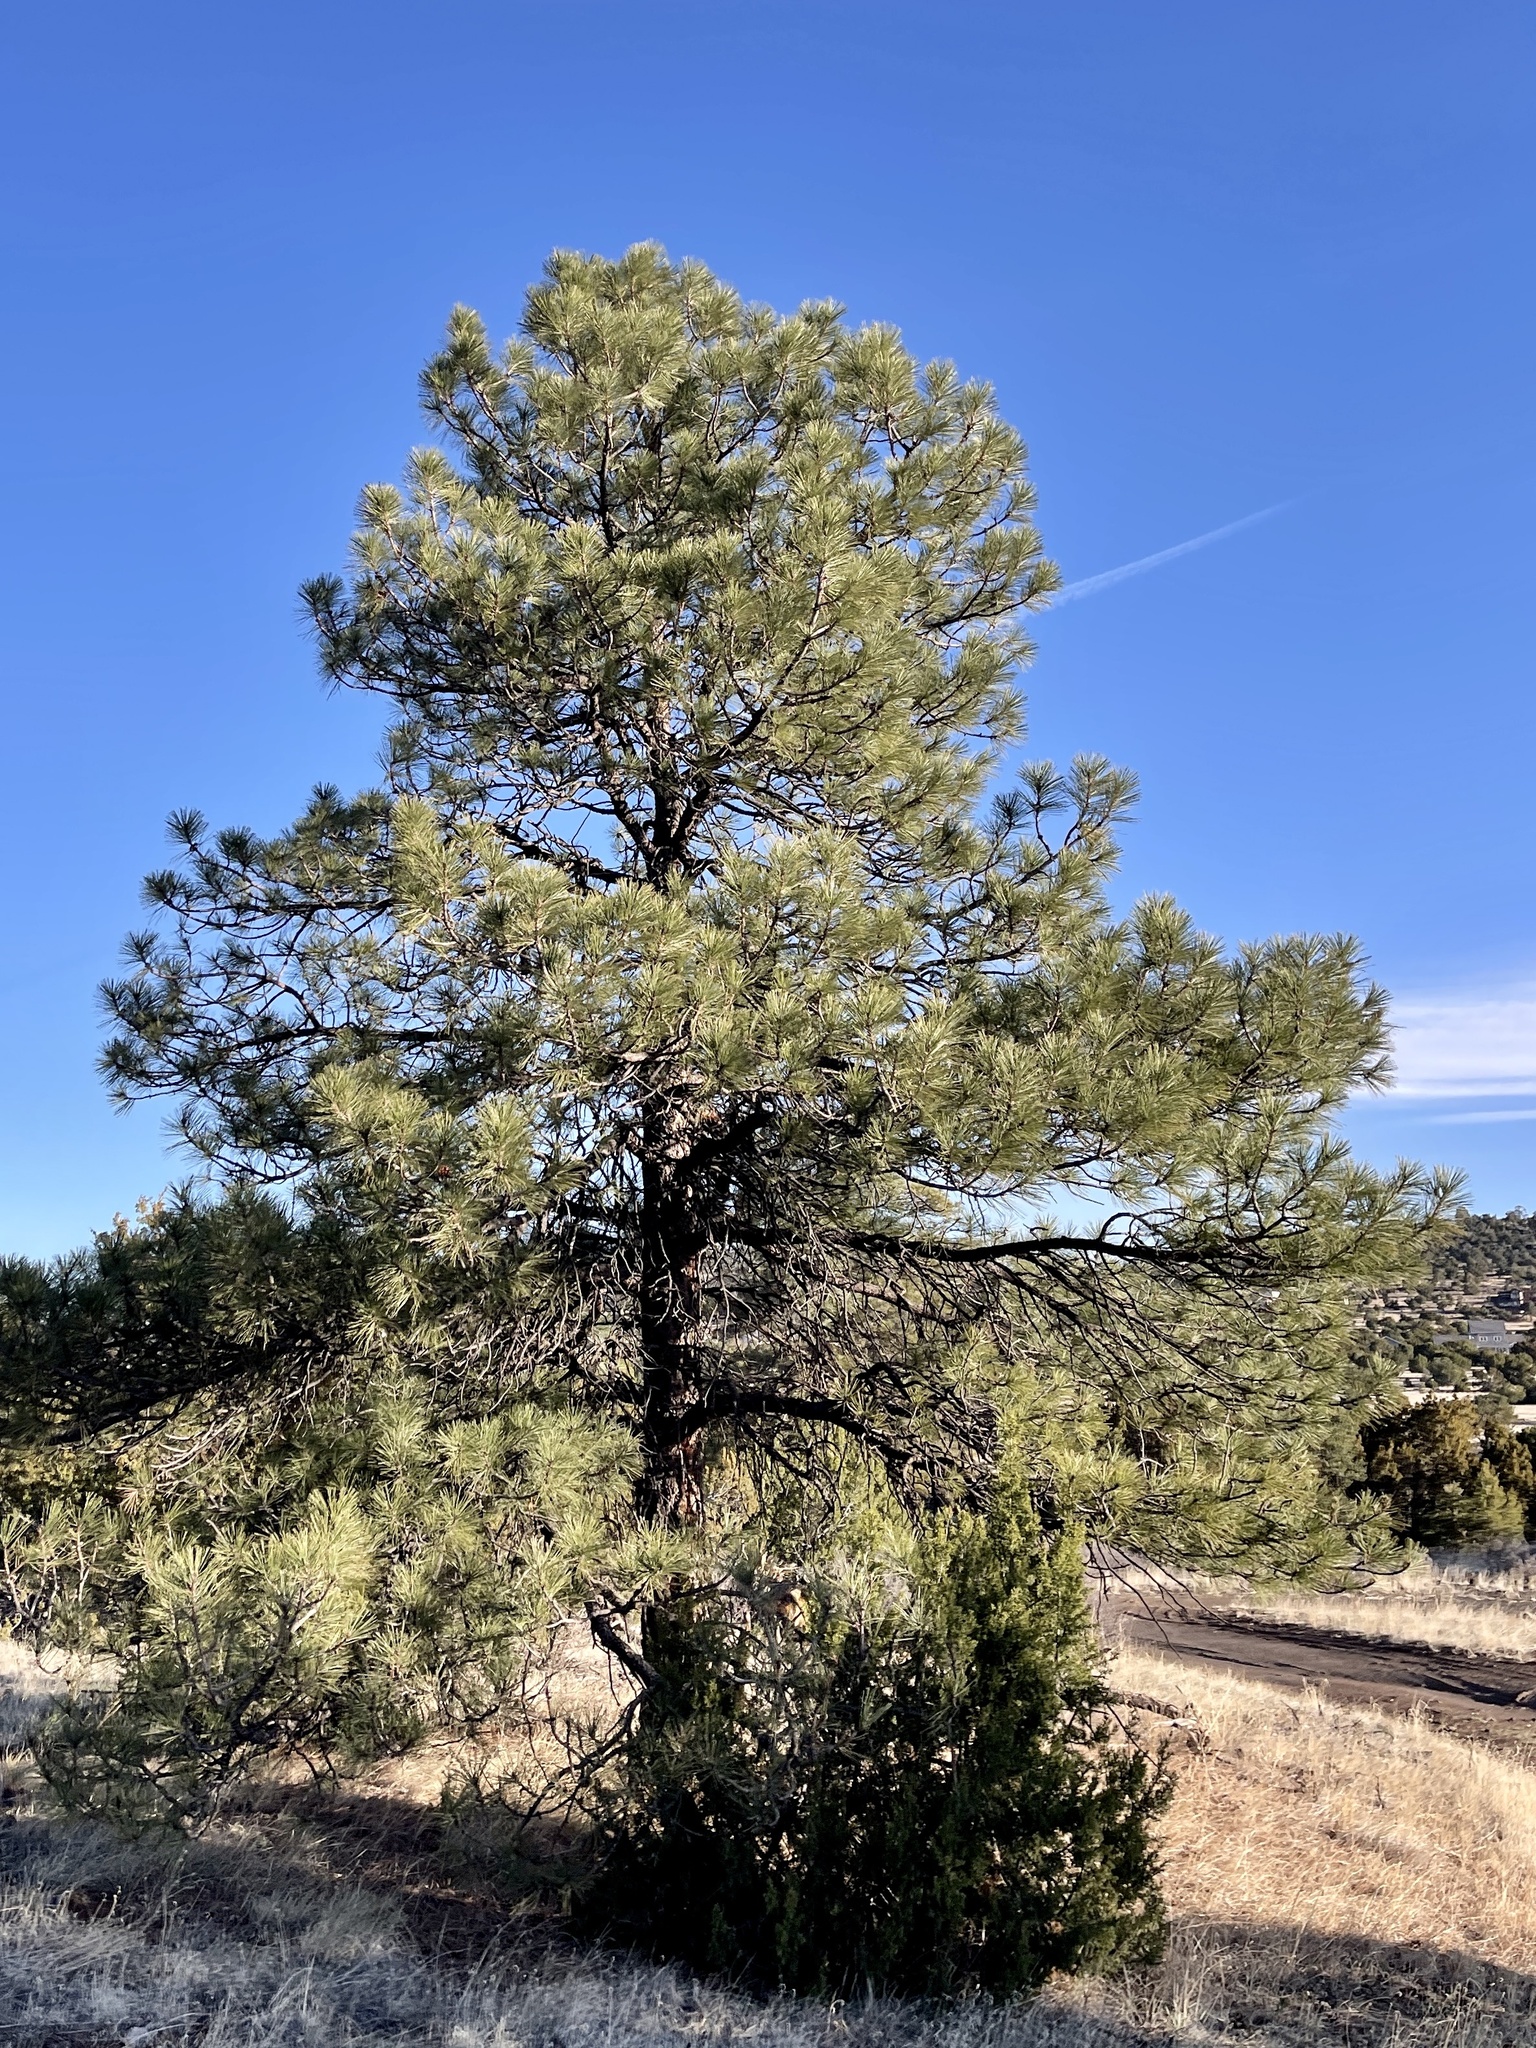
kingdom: Plantae
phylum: Tracheophyta
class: Pinopsida
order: Pinales
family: Pinaceae
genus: Pinus
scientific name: Pinus ponderosa
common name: Western yellow-pine
